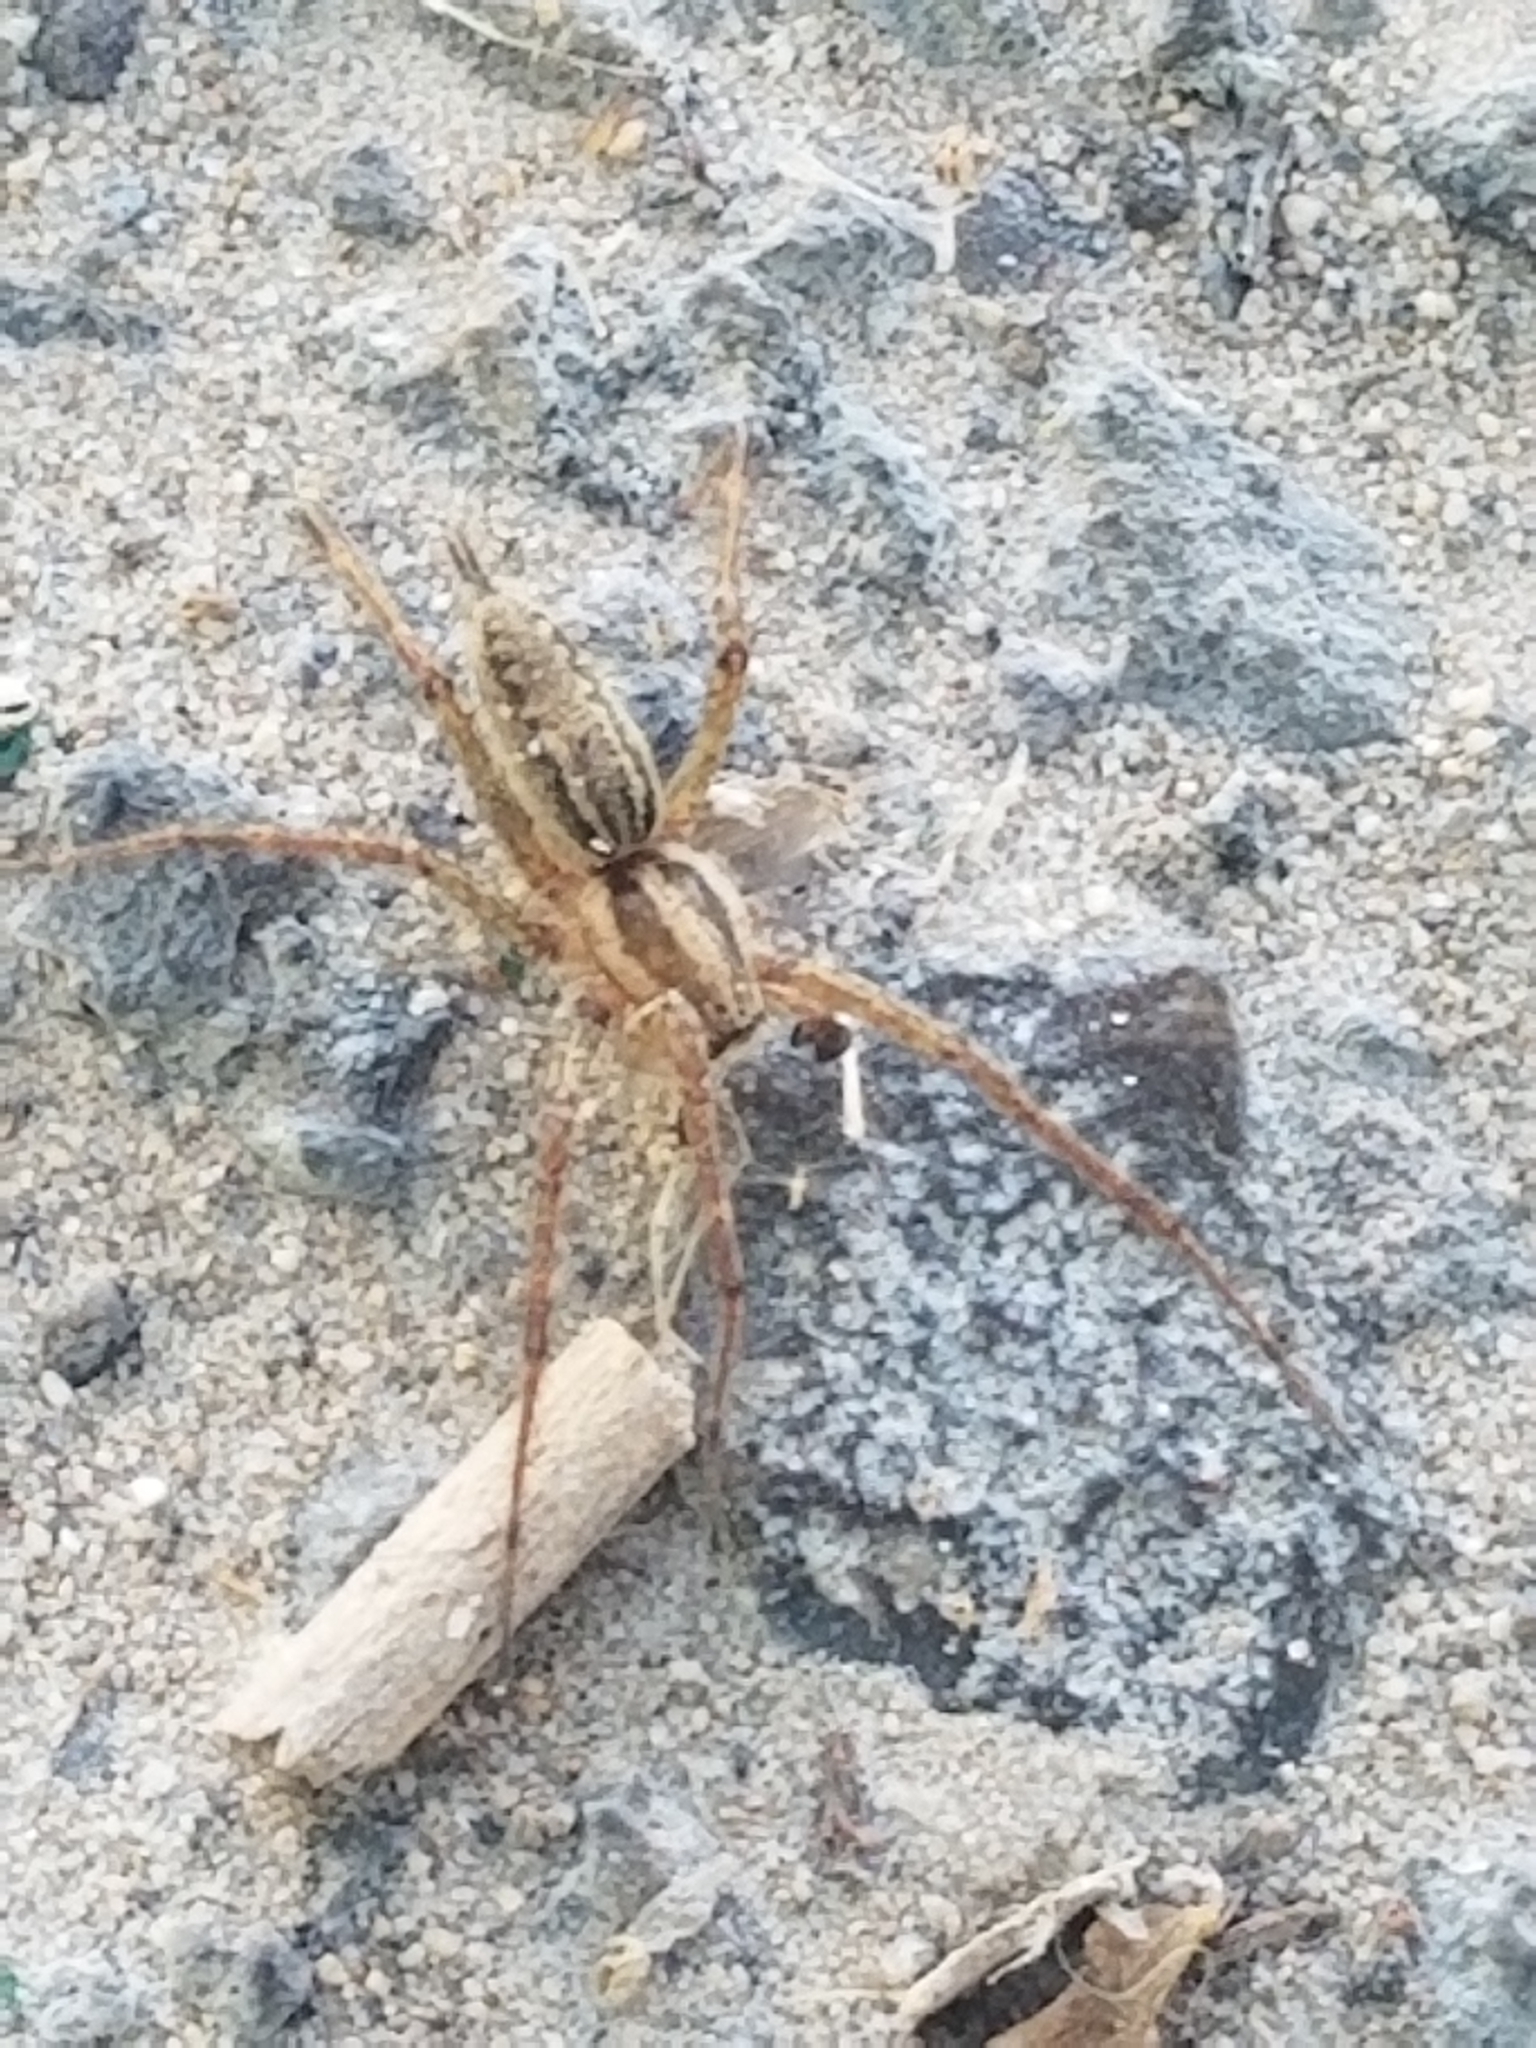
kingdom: Animalia
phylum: Arthropoda
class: Arachnida
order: Araneae
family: Agelenidae
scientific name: Agelenidae
